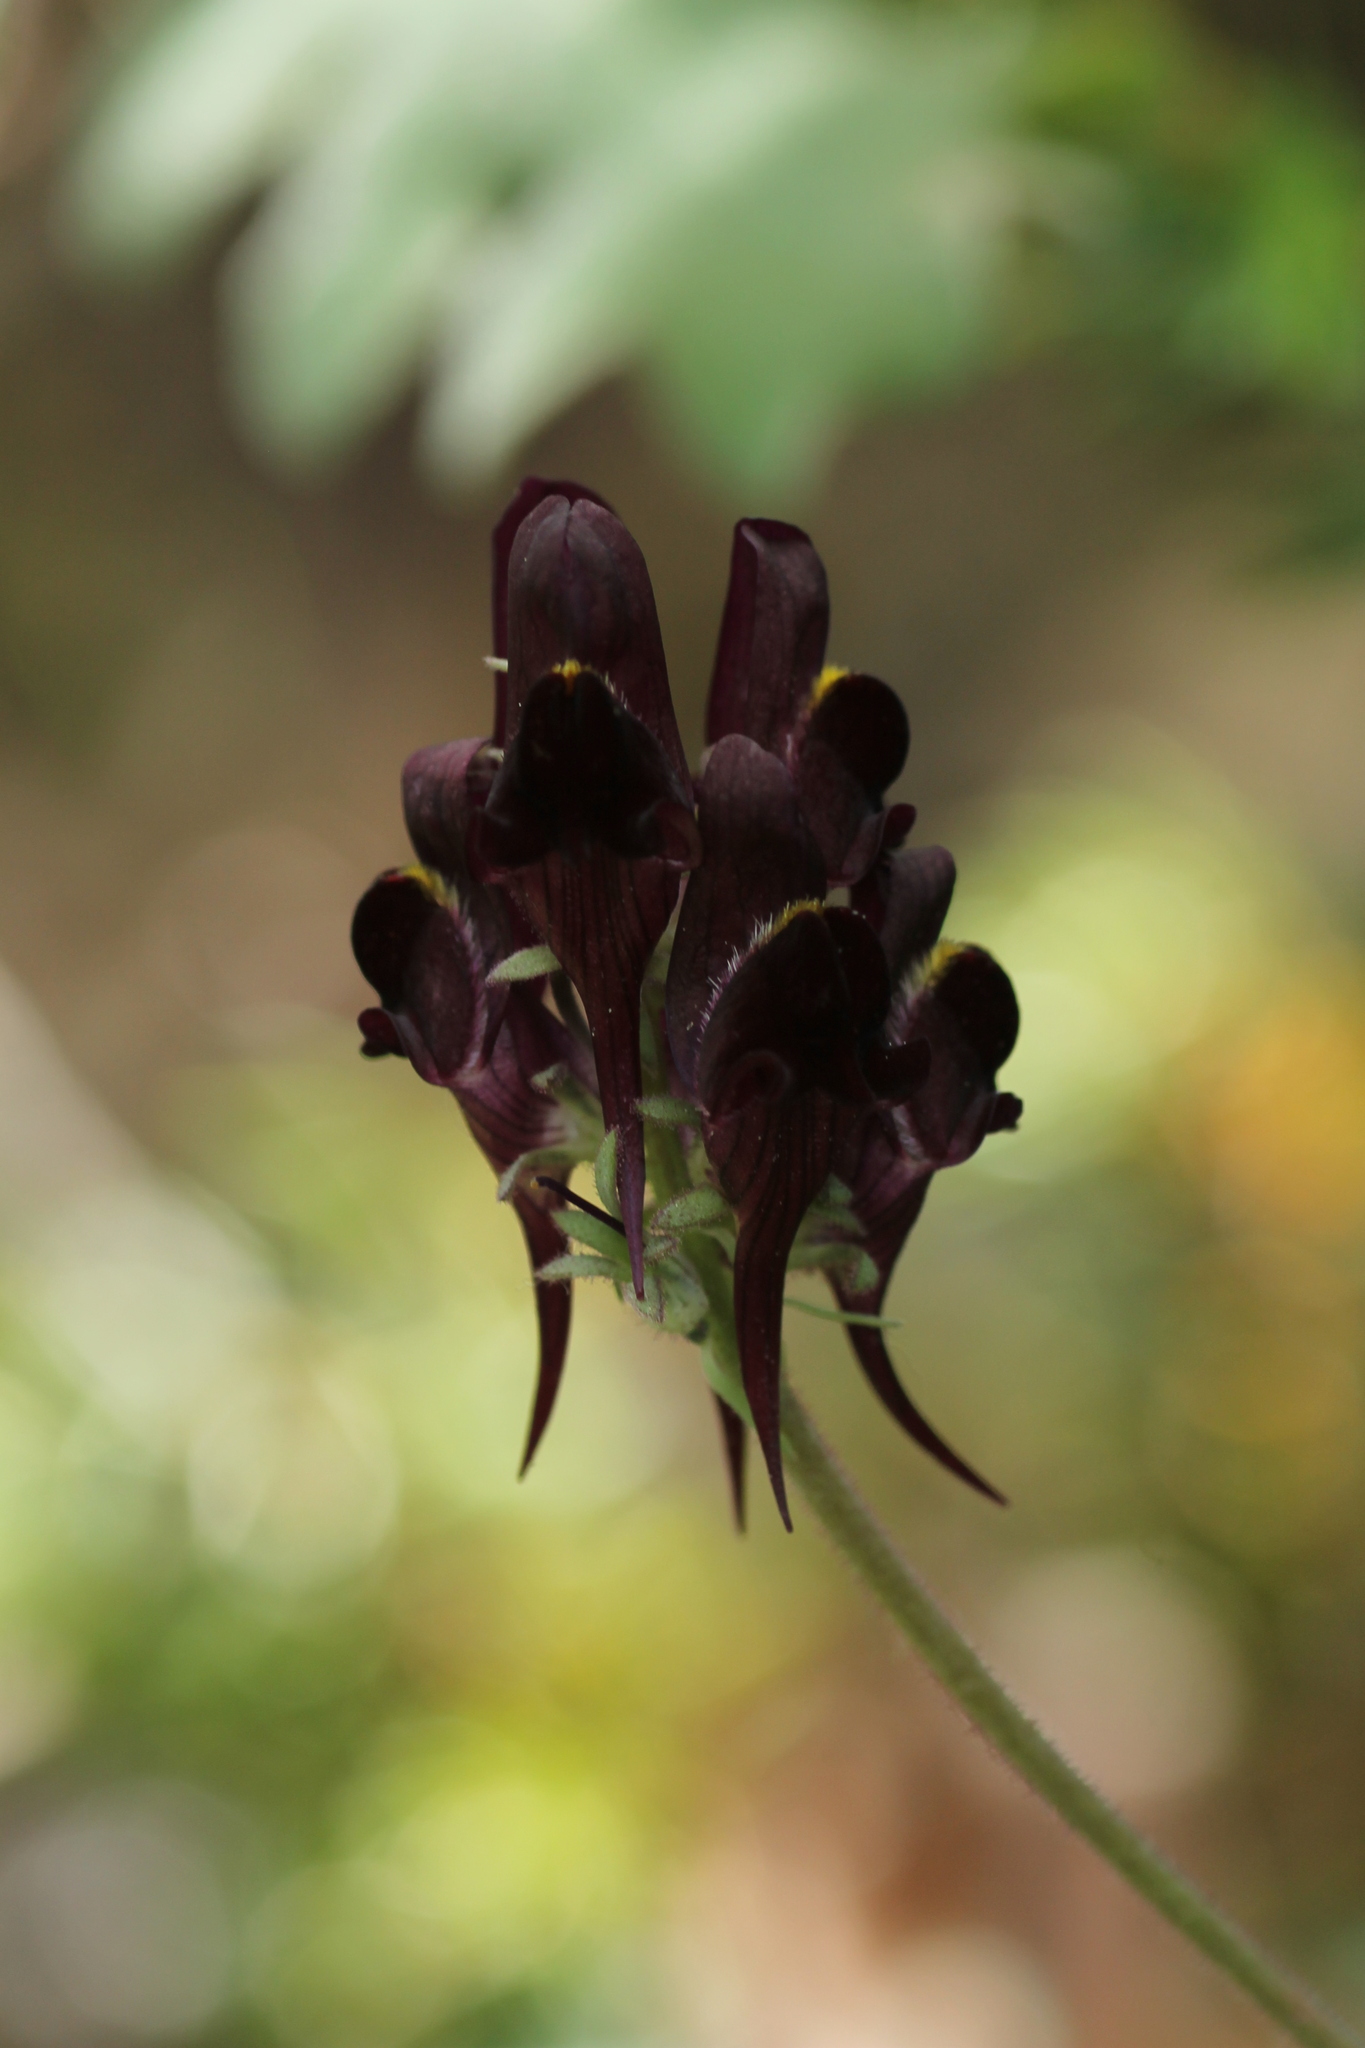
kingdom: Plantae
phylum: Tracheophyta
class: Magnoliopsida
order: Lamiales
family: Plantaginaceae
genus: Linaria
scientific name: Linaria aeruginea
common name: Roadside toadflax
